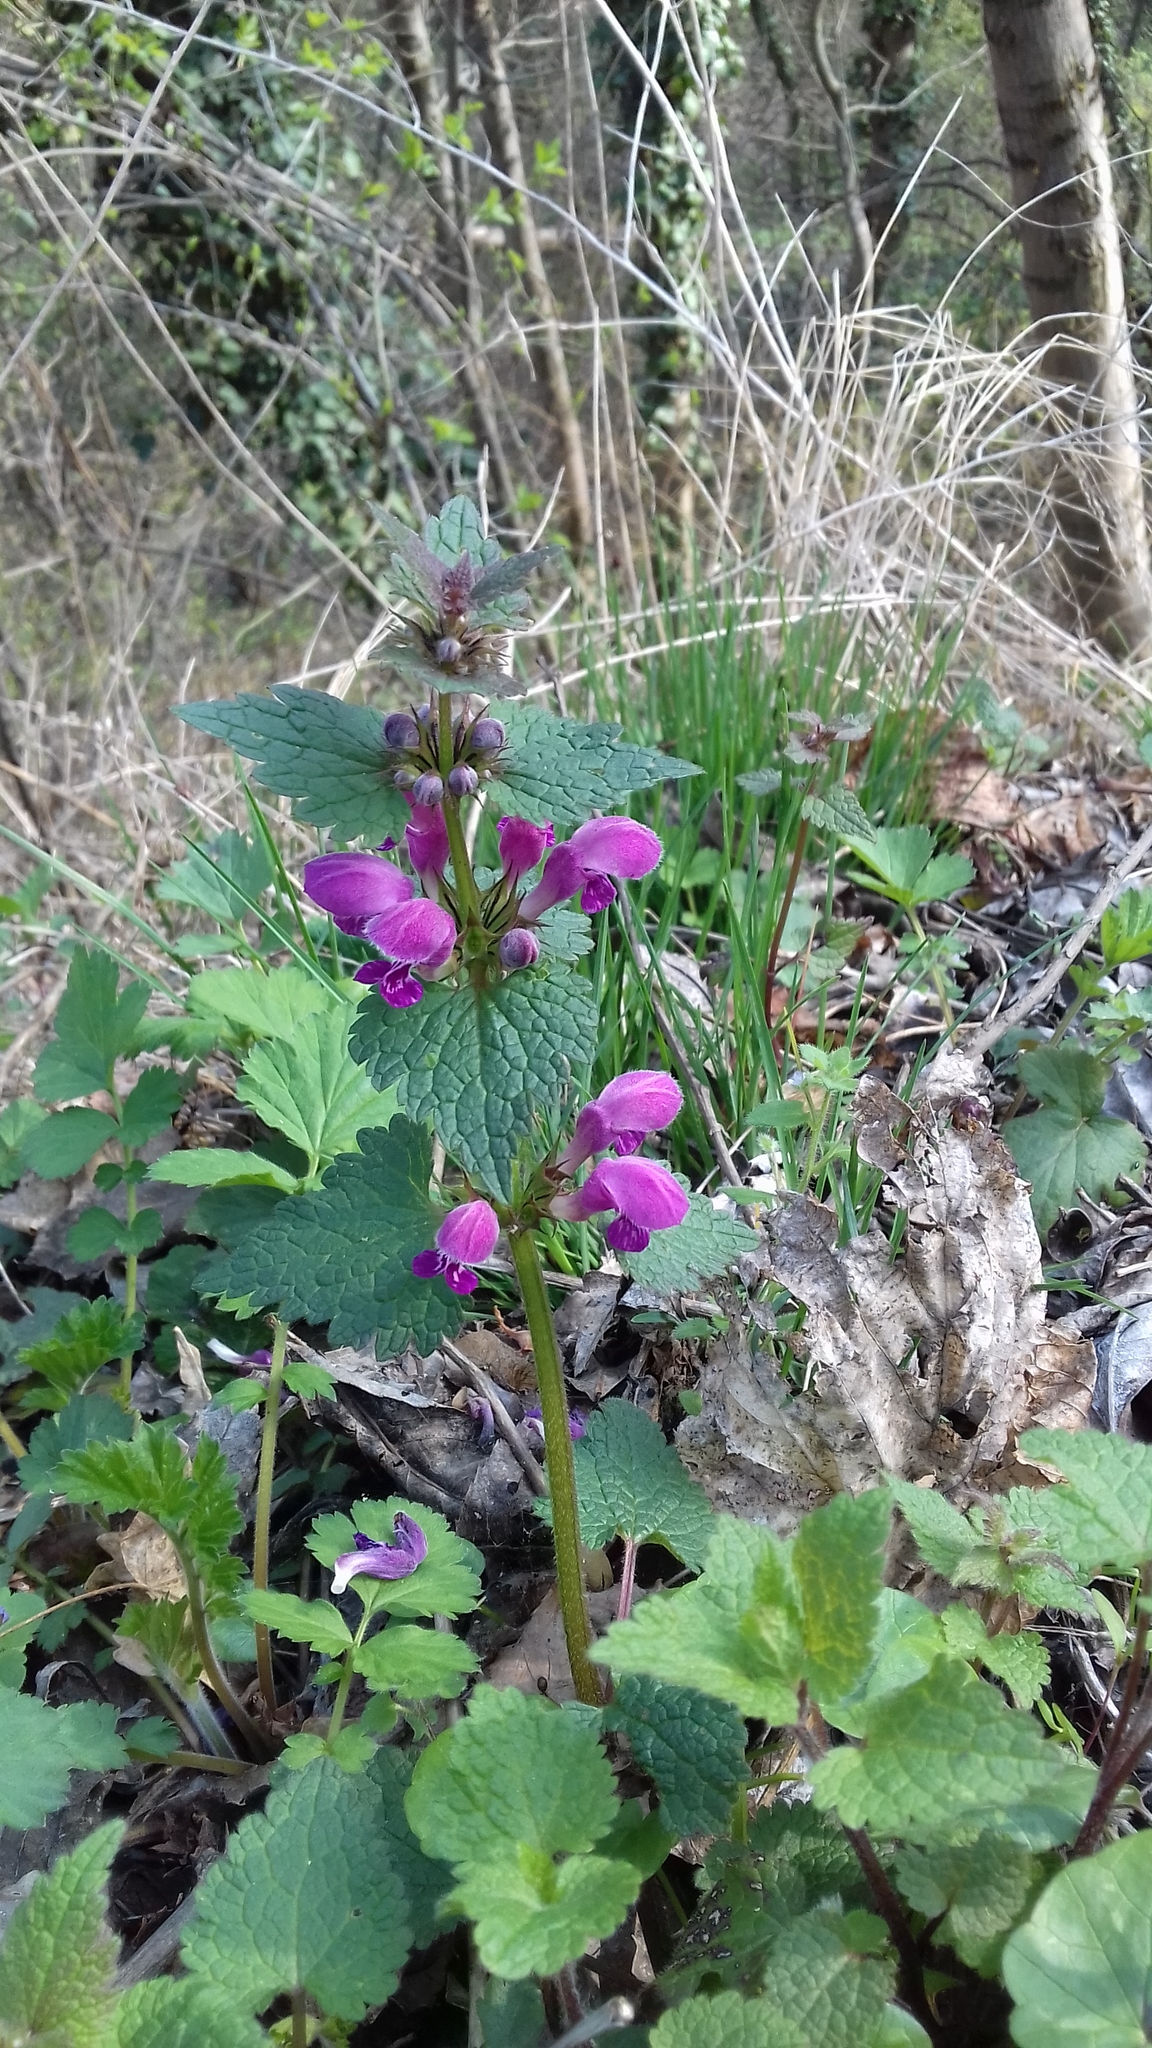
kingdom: Plantae
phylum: Tracheophyta
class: Magnoliopsida
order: Lamiales
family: Lamiaceae
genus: Lamium
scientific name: Lamium maculatum
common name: Spotted dead-nettle
